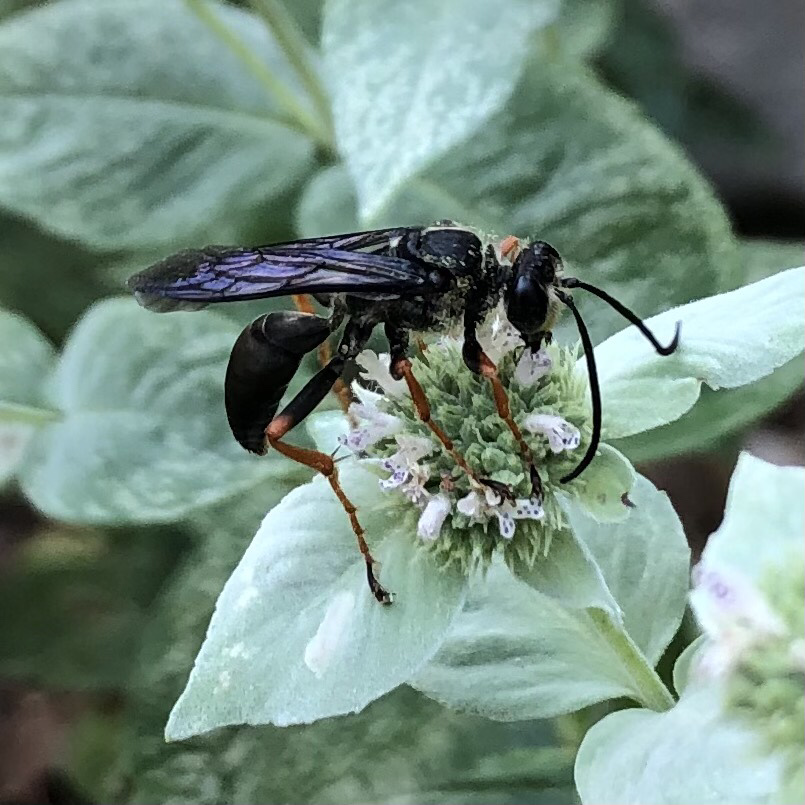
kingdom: Animalia
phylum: Arthropoda
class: Insecta
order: Hymenoptera
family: Sphecidae
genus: Sphex
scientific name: Sphex nudus
